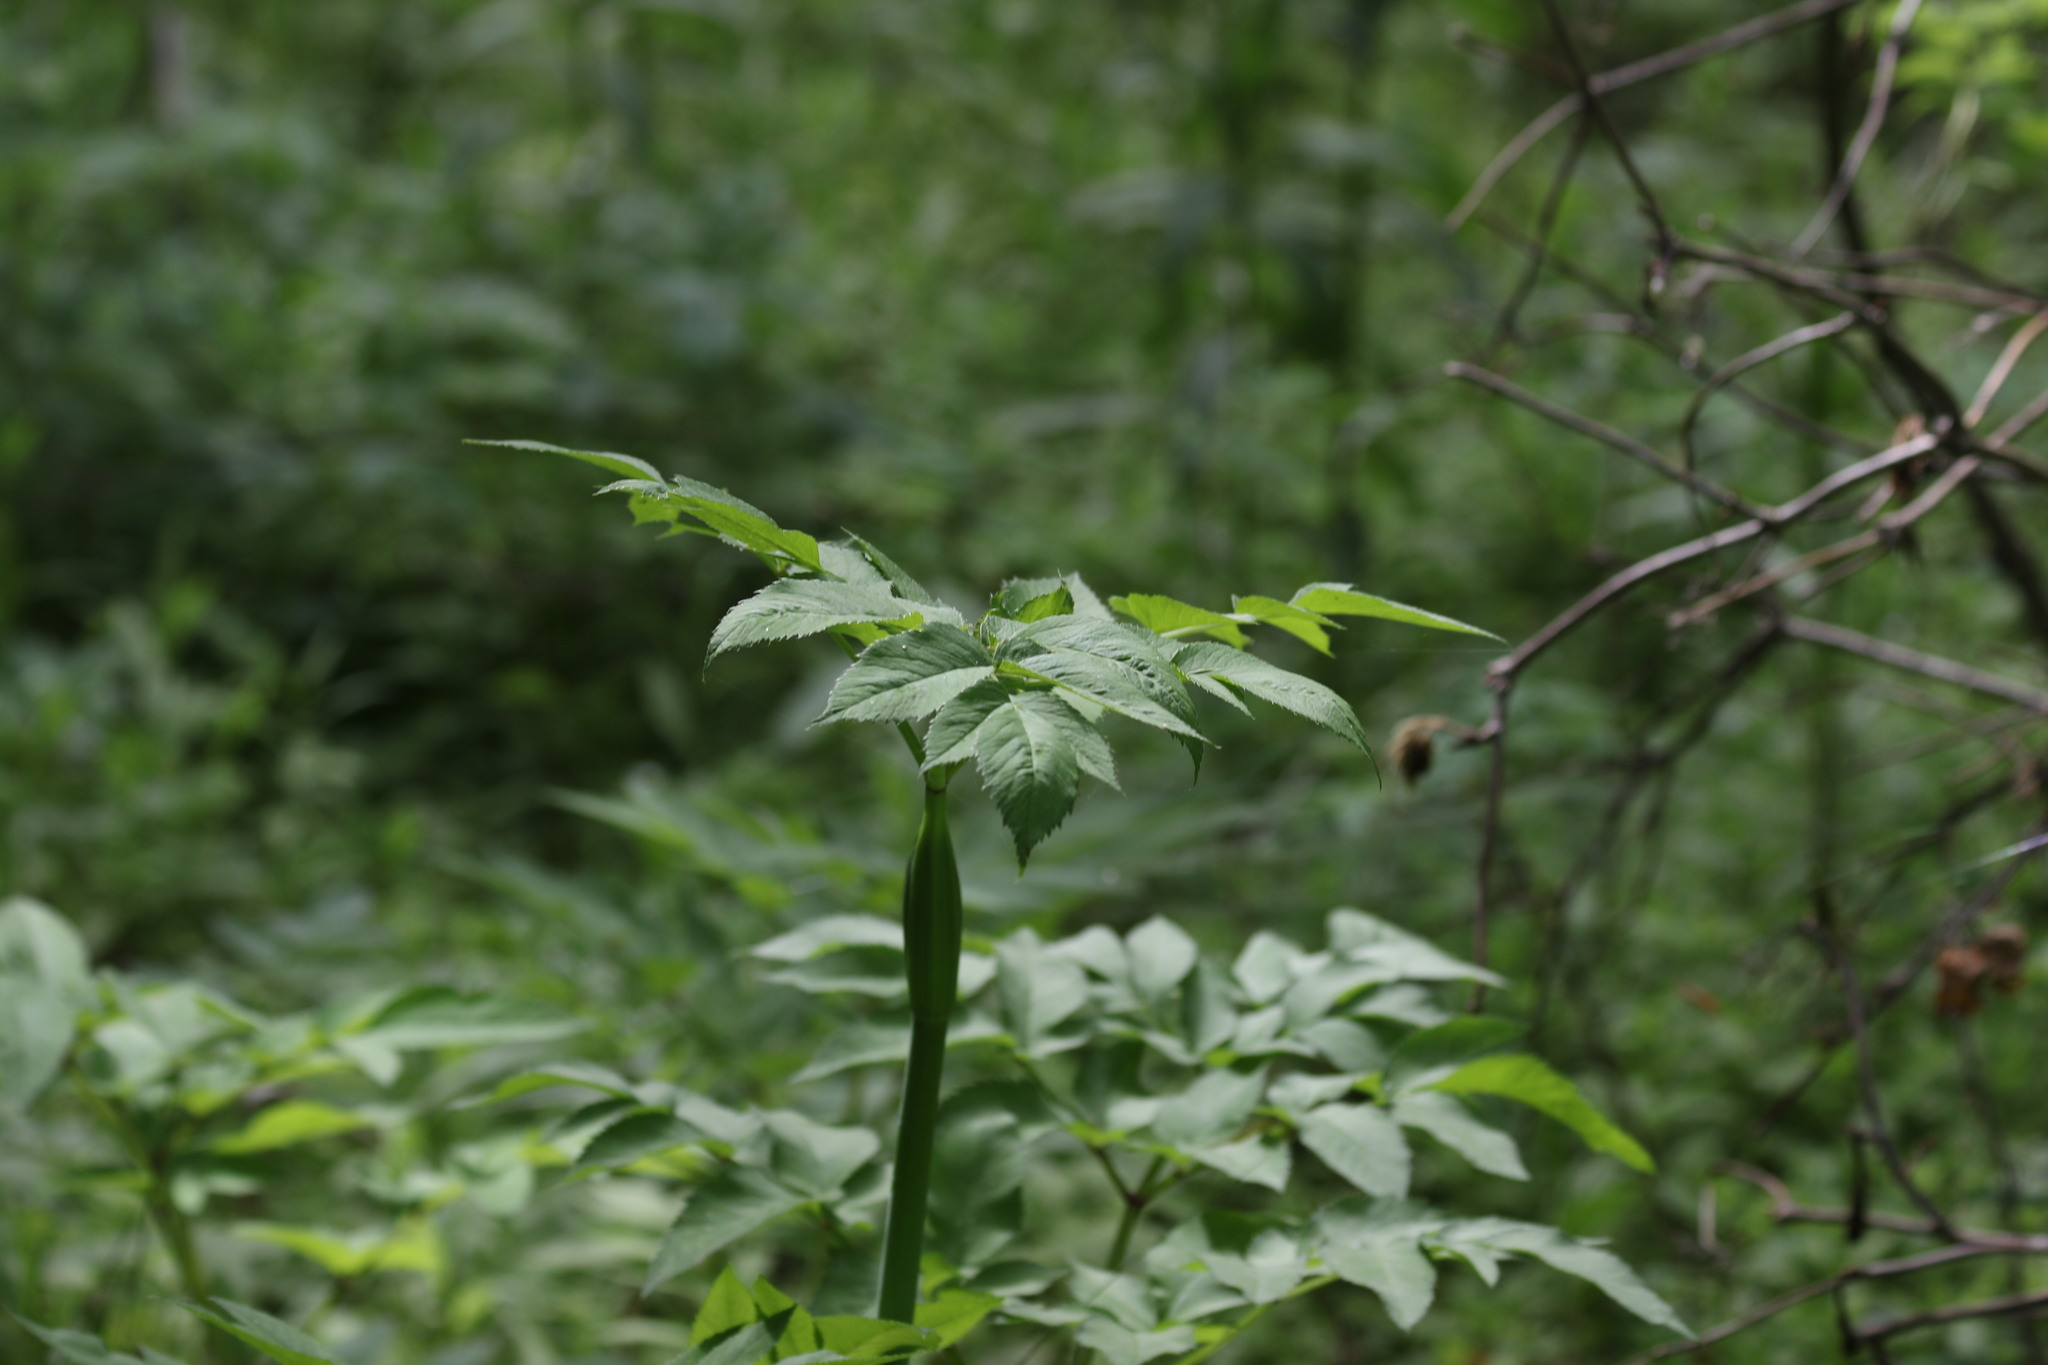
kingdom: Plantae
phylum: Tracheophyta
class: Magnoliopsida
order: Apiales
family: Apiaceae
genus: Angelica
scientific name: Angelica sylvestris
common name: Wild angelica
